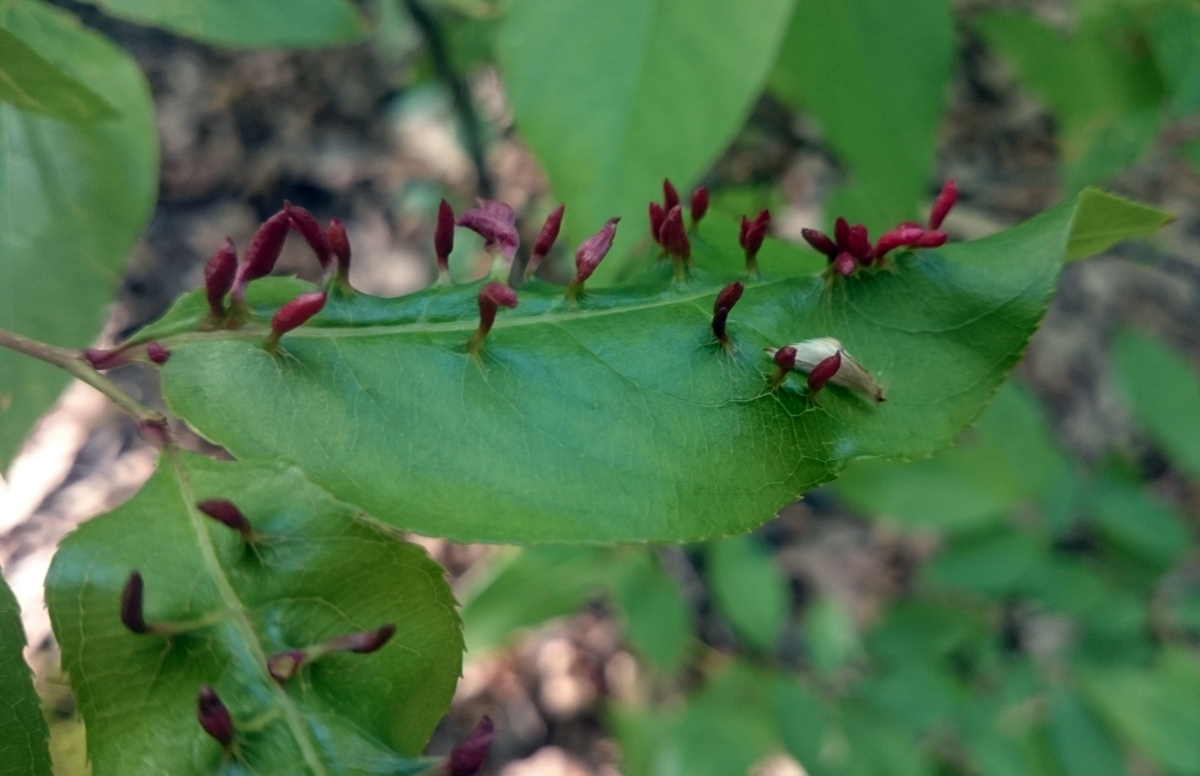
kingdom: Animalia
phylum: Arthropoda
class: Arachnida
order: Trombidiformes
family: Eriophyidae
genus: Eriophyes
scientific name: Eriophyes
